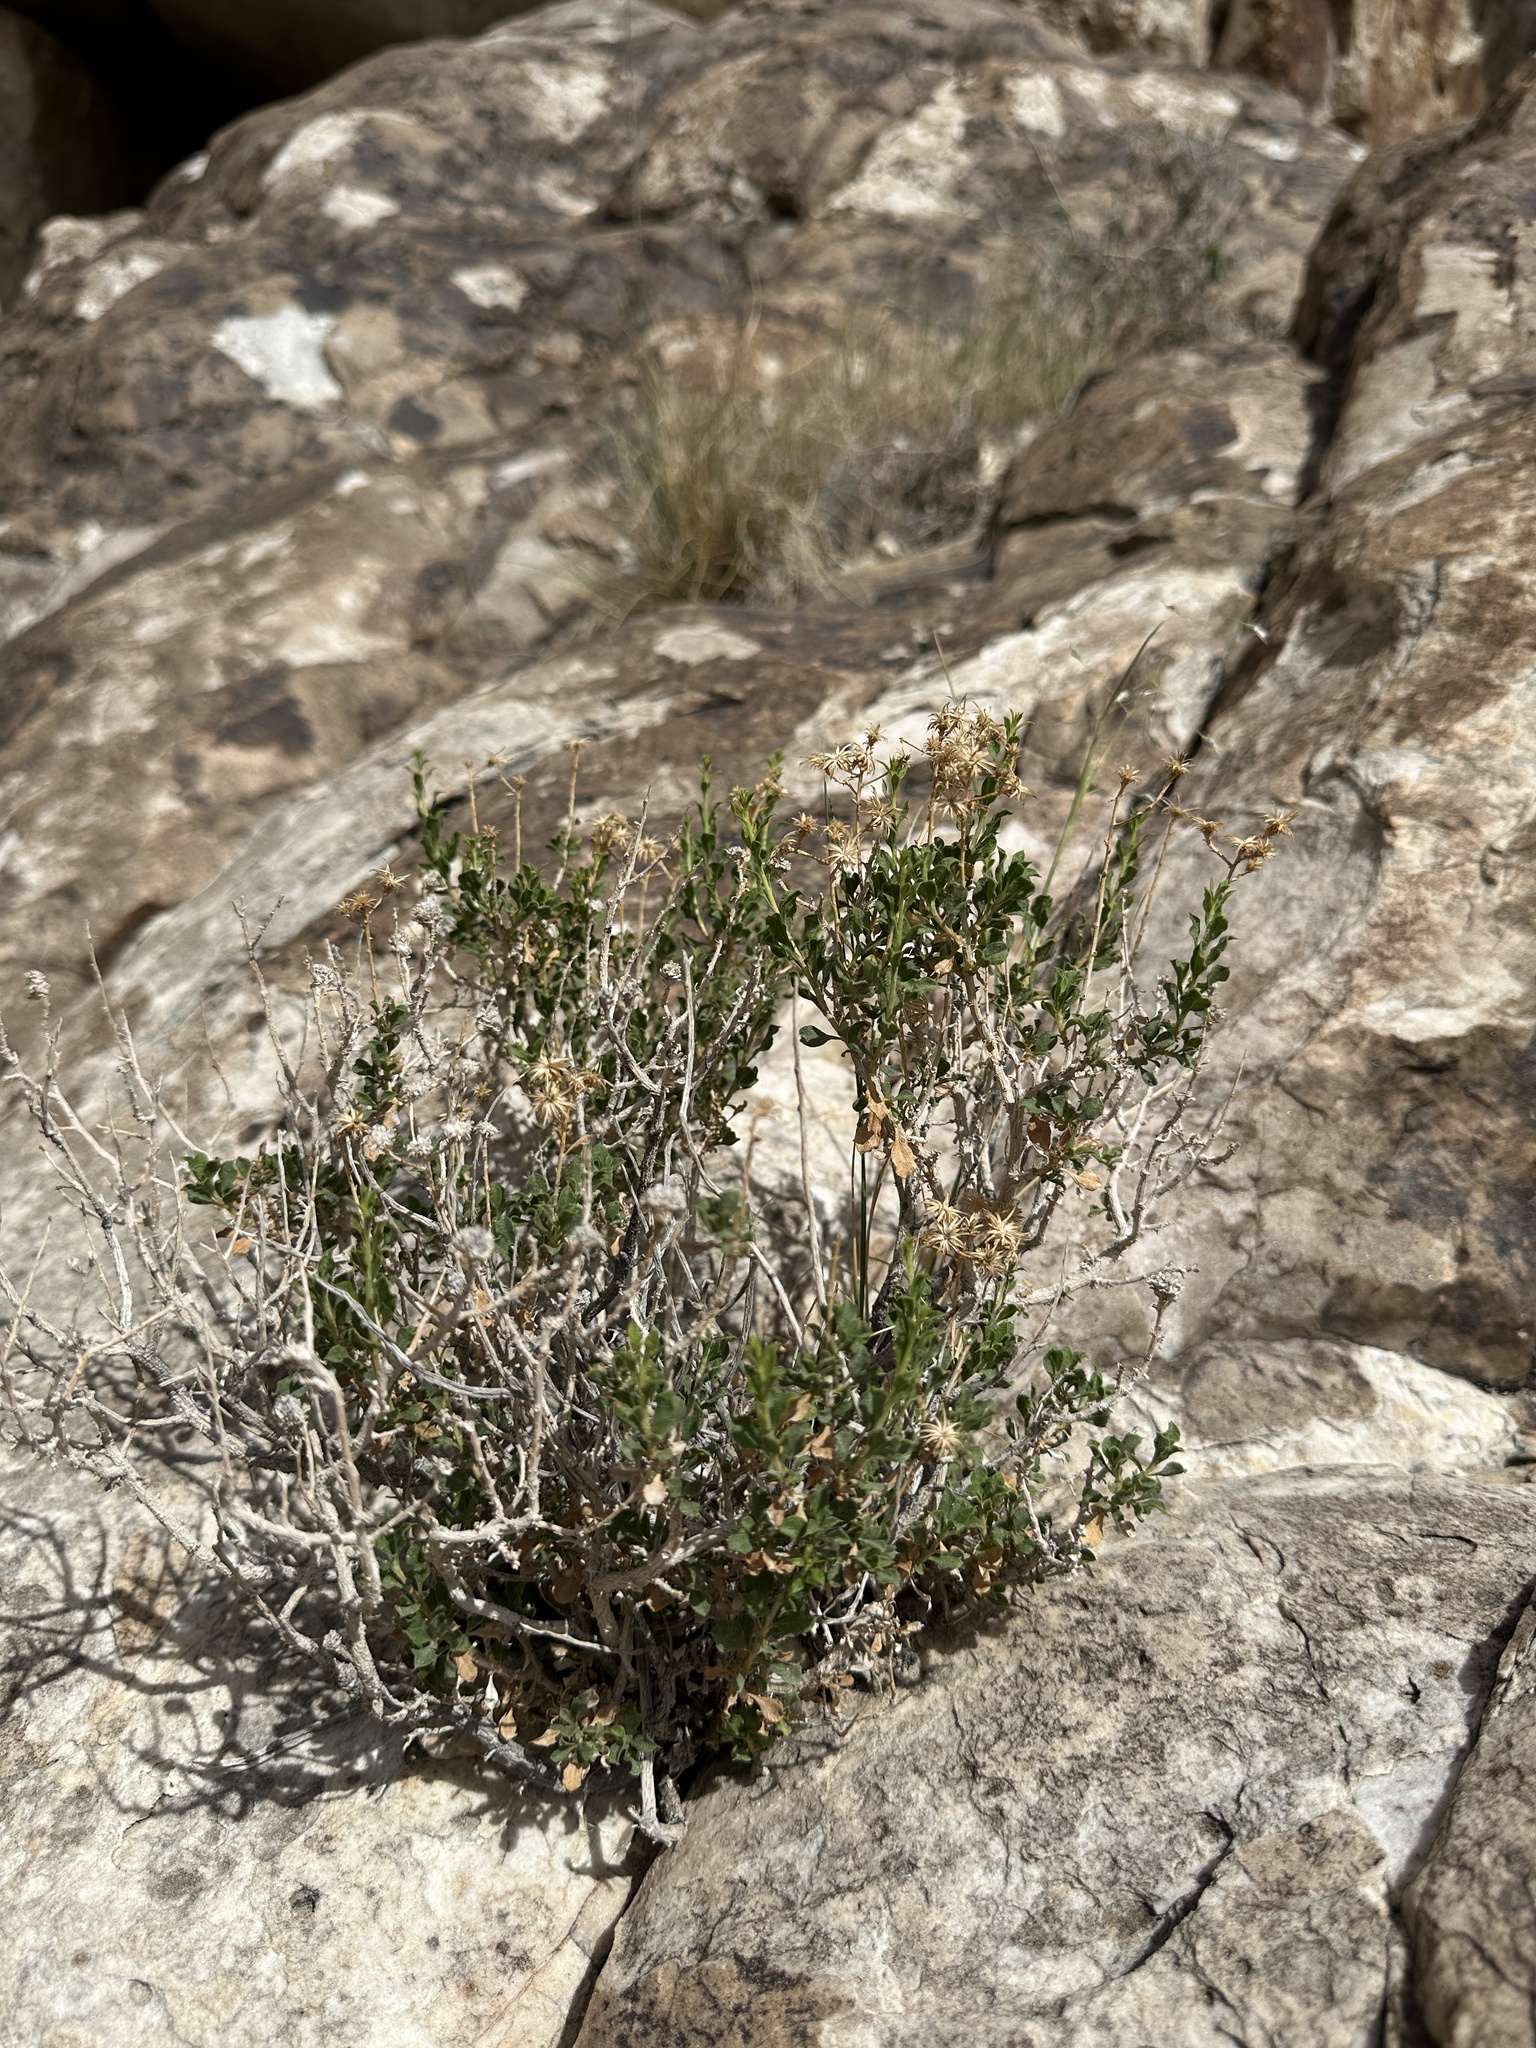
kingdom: Plantae
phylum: Tracheophyta
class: Magnoliopsida
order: Asterales
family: Asteraceae
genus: Ericameria
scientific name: Ericameria cervina
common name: Antelope goldenbush
